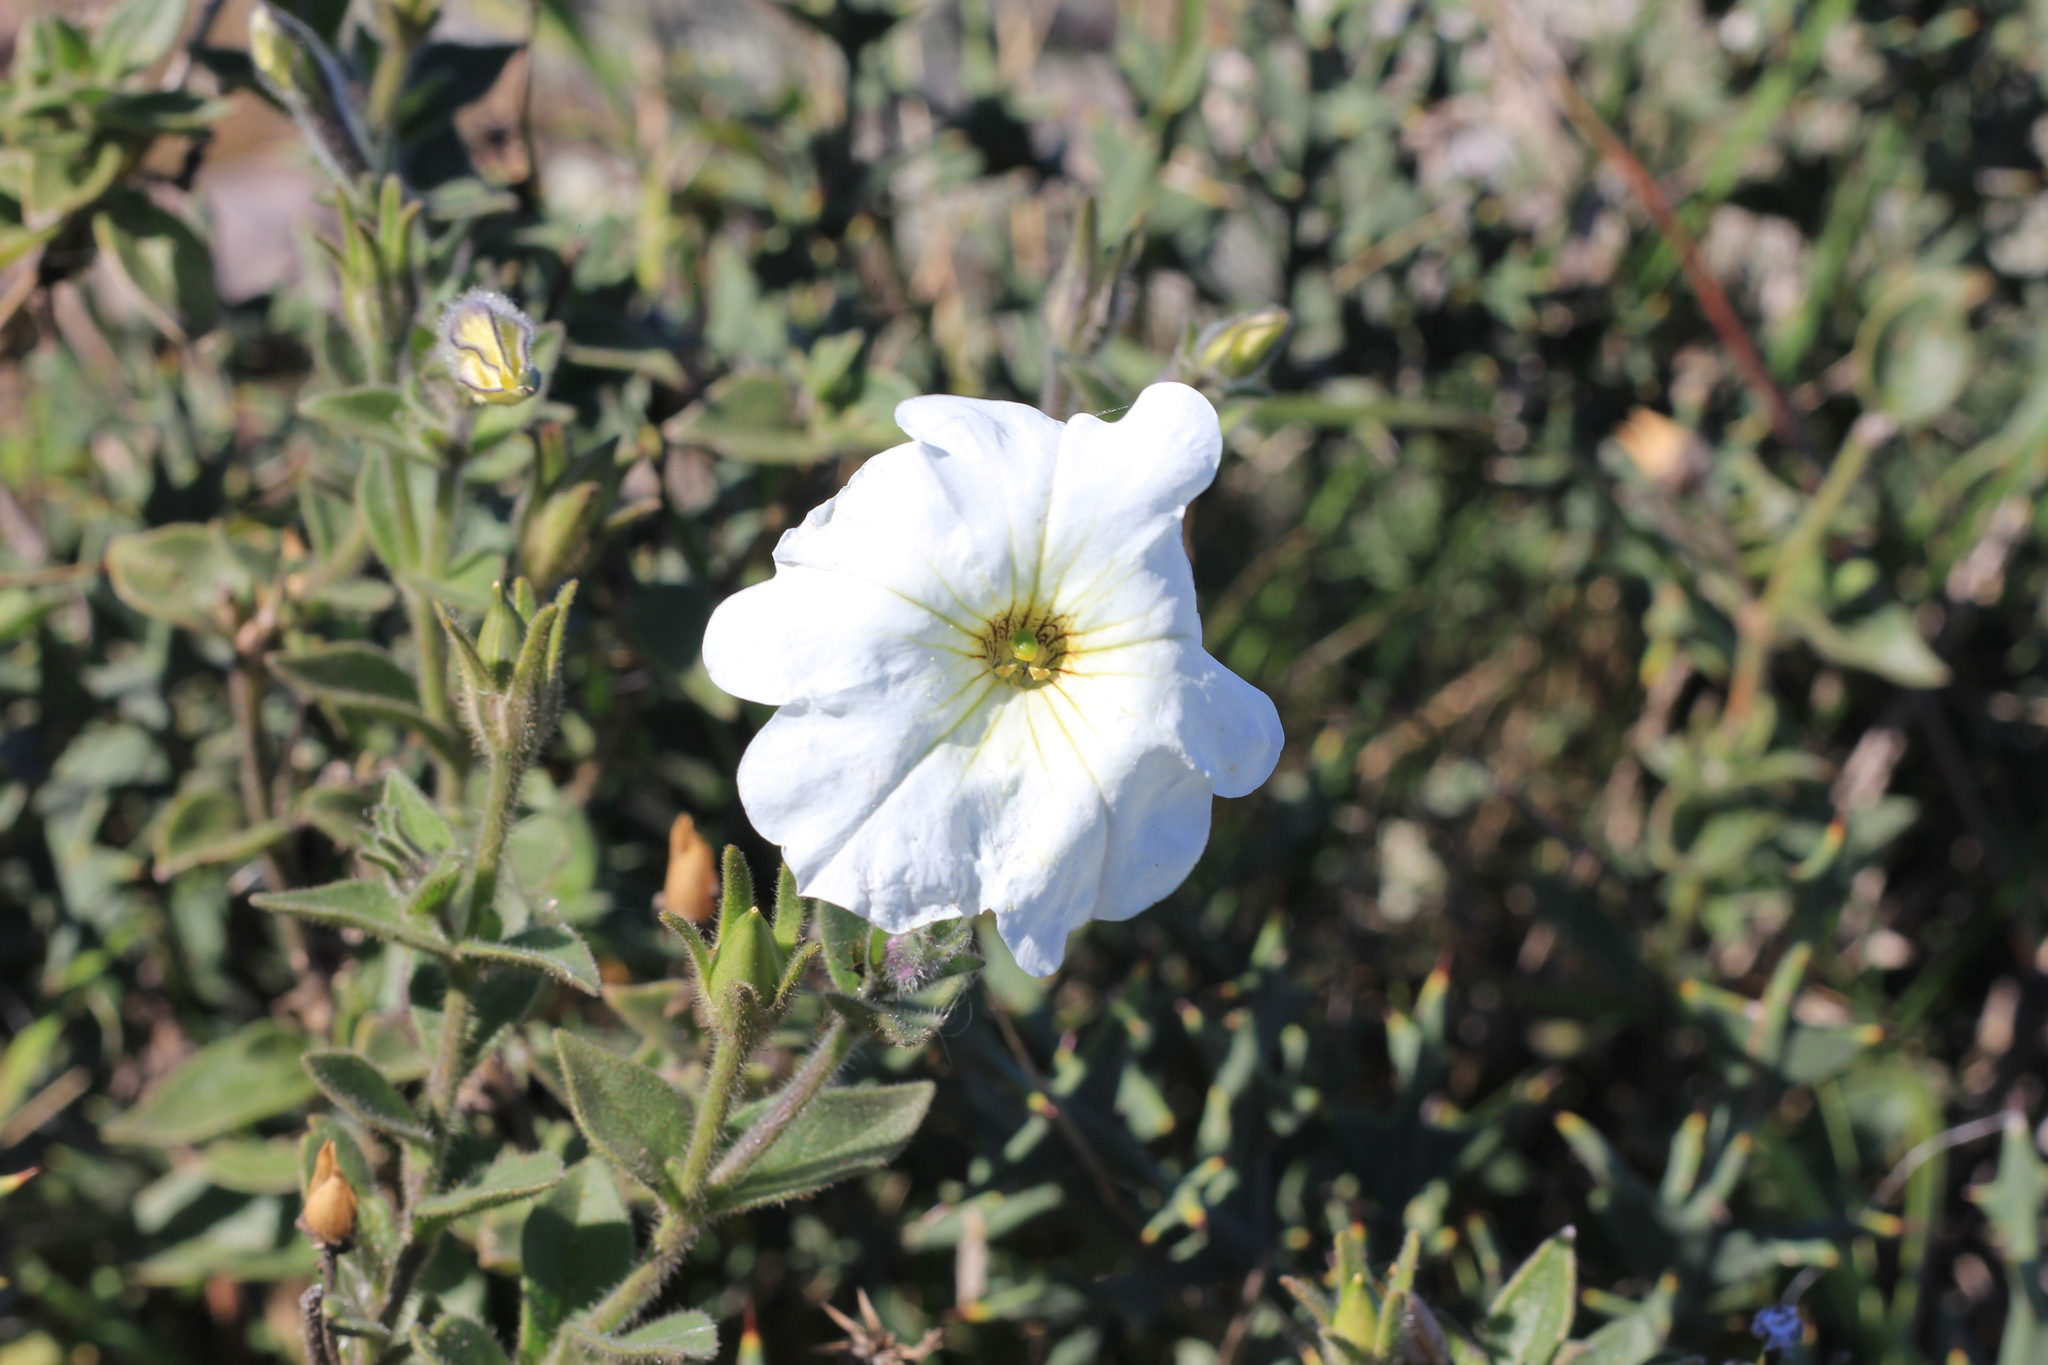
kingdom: Plantae
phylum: Tracheophyta
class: Magnoliopsida
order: Solanales
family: Solanaceae
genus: Petunia
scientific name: Petunia axillaris
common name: Large white petunia
